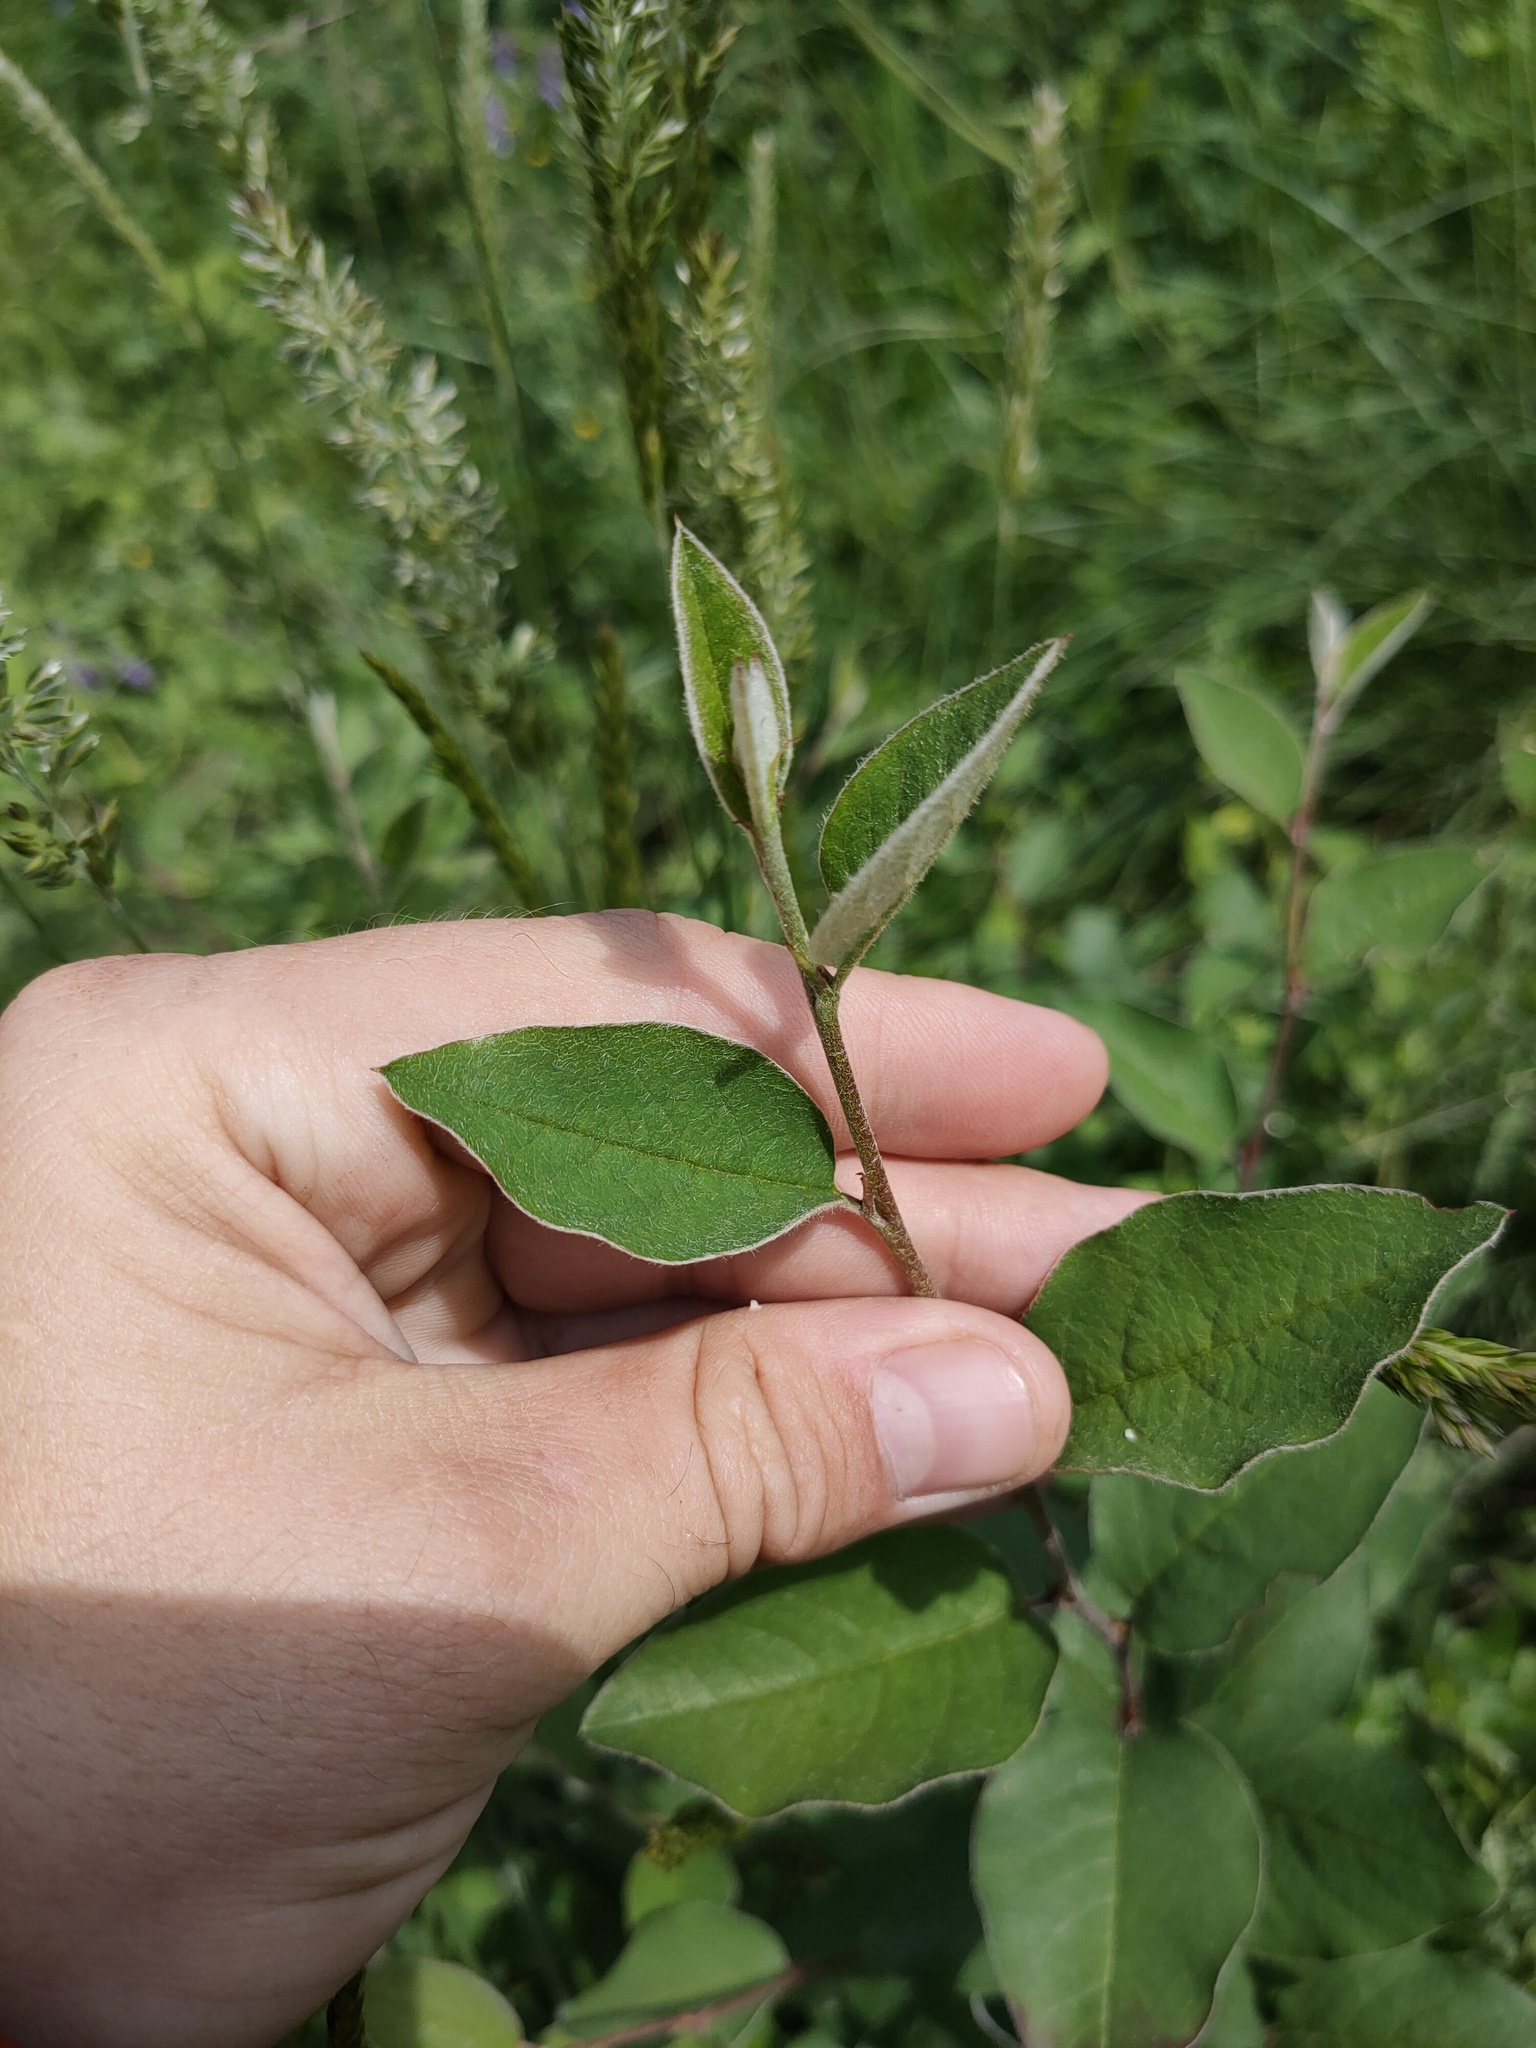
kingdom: Plantae
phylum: Tracheophyta
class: Magnoliopsida
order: Rosales
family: Rosaceae
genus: Cotoneaster
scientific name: Cotoneaster melanocarpus
